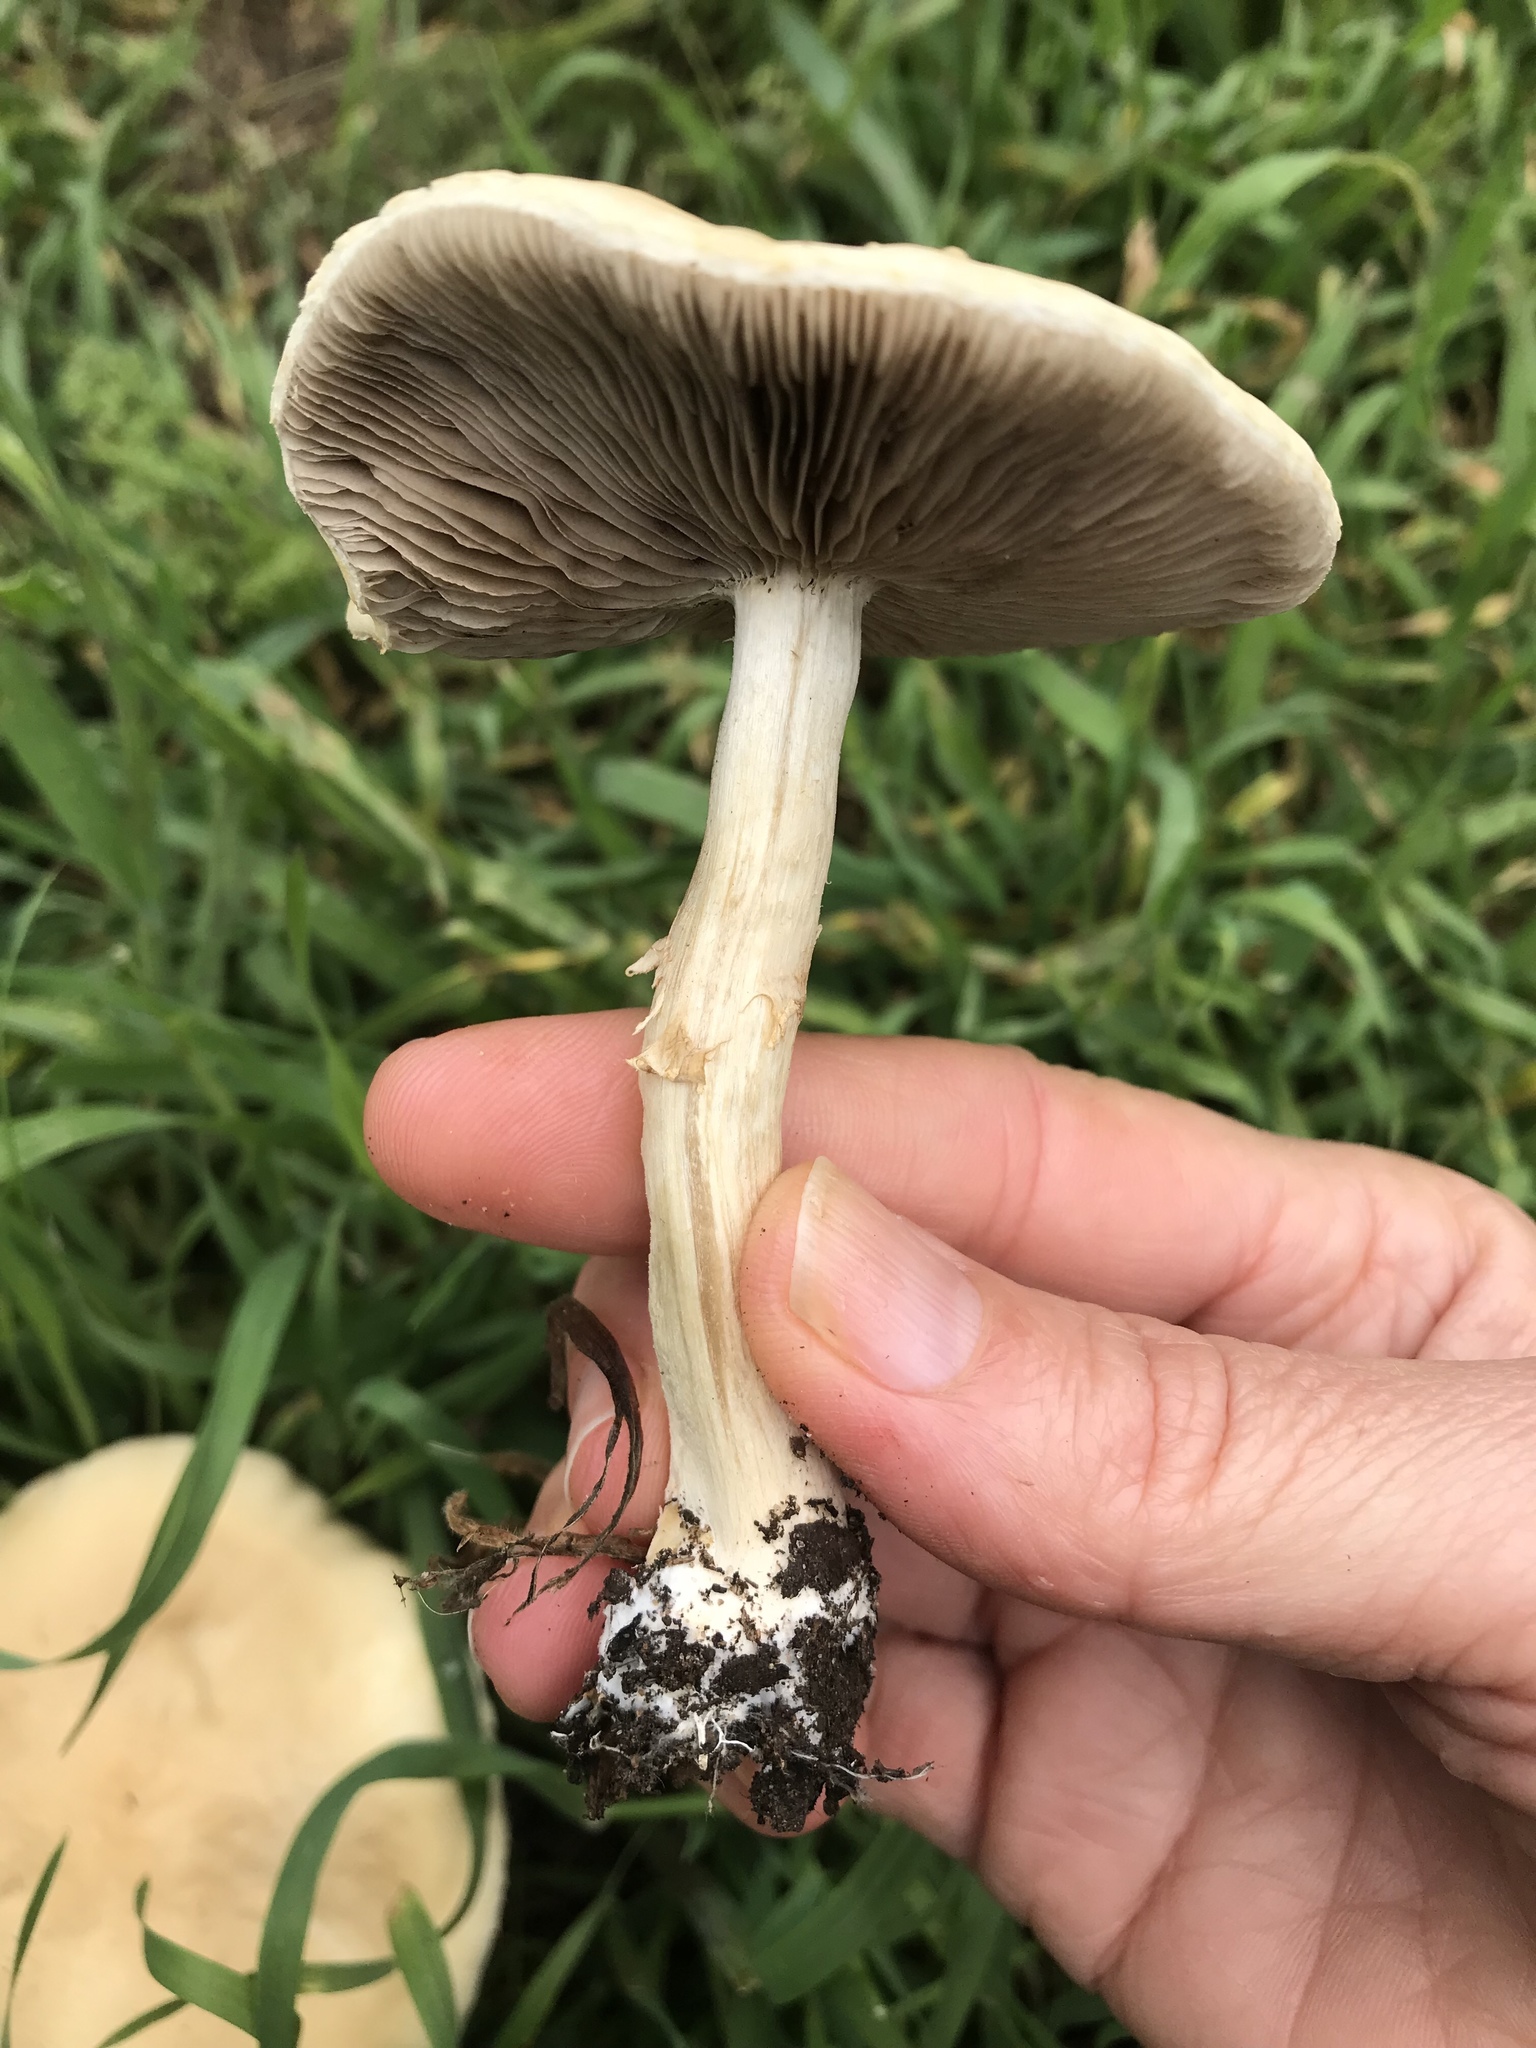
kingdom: Fungi
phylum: Basidiomycota
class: Agaricomycetes
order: Agaricales
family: Strophariaceae
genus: Leratiomyces
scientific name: Leratiomyces percevalii
